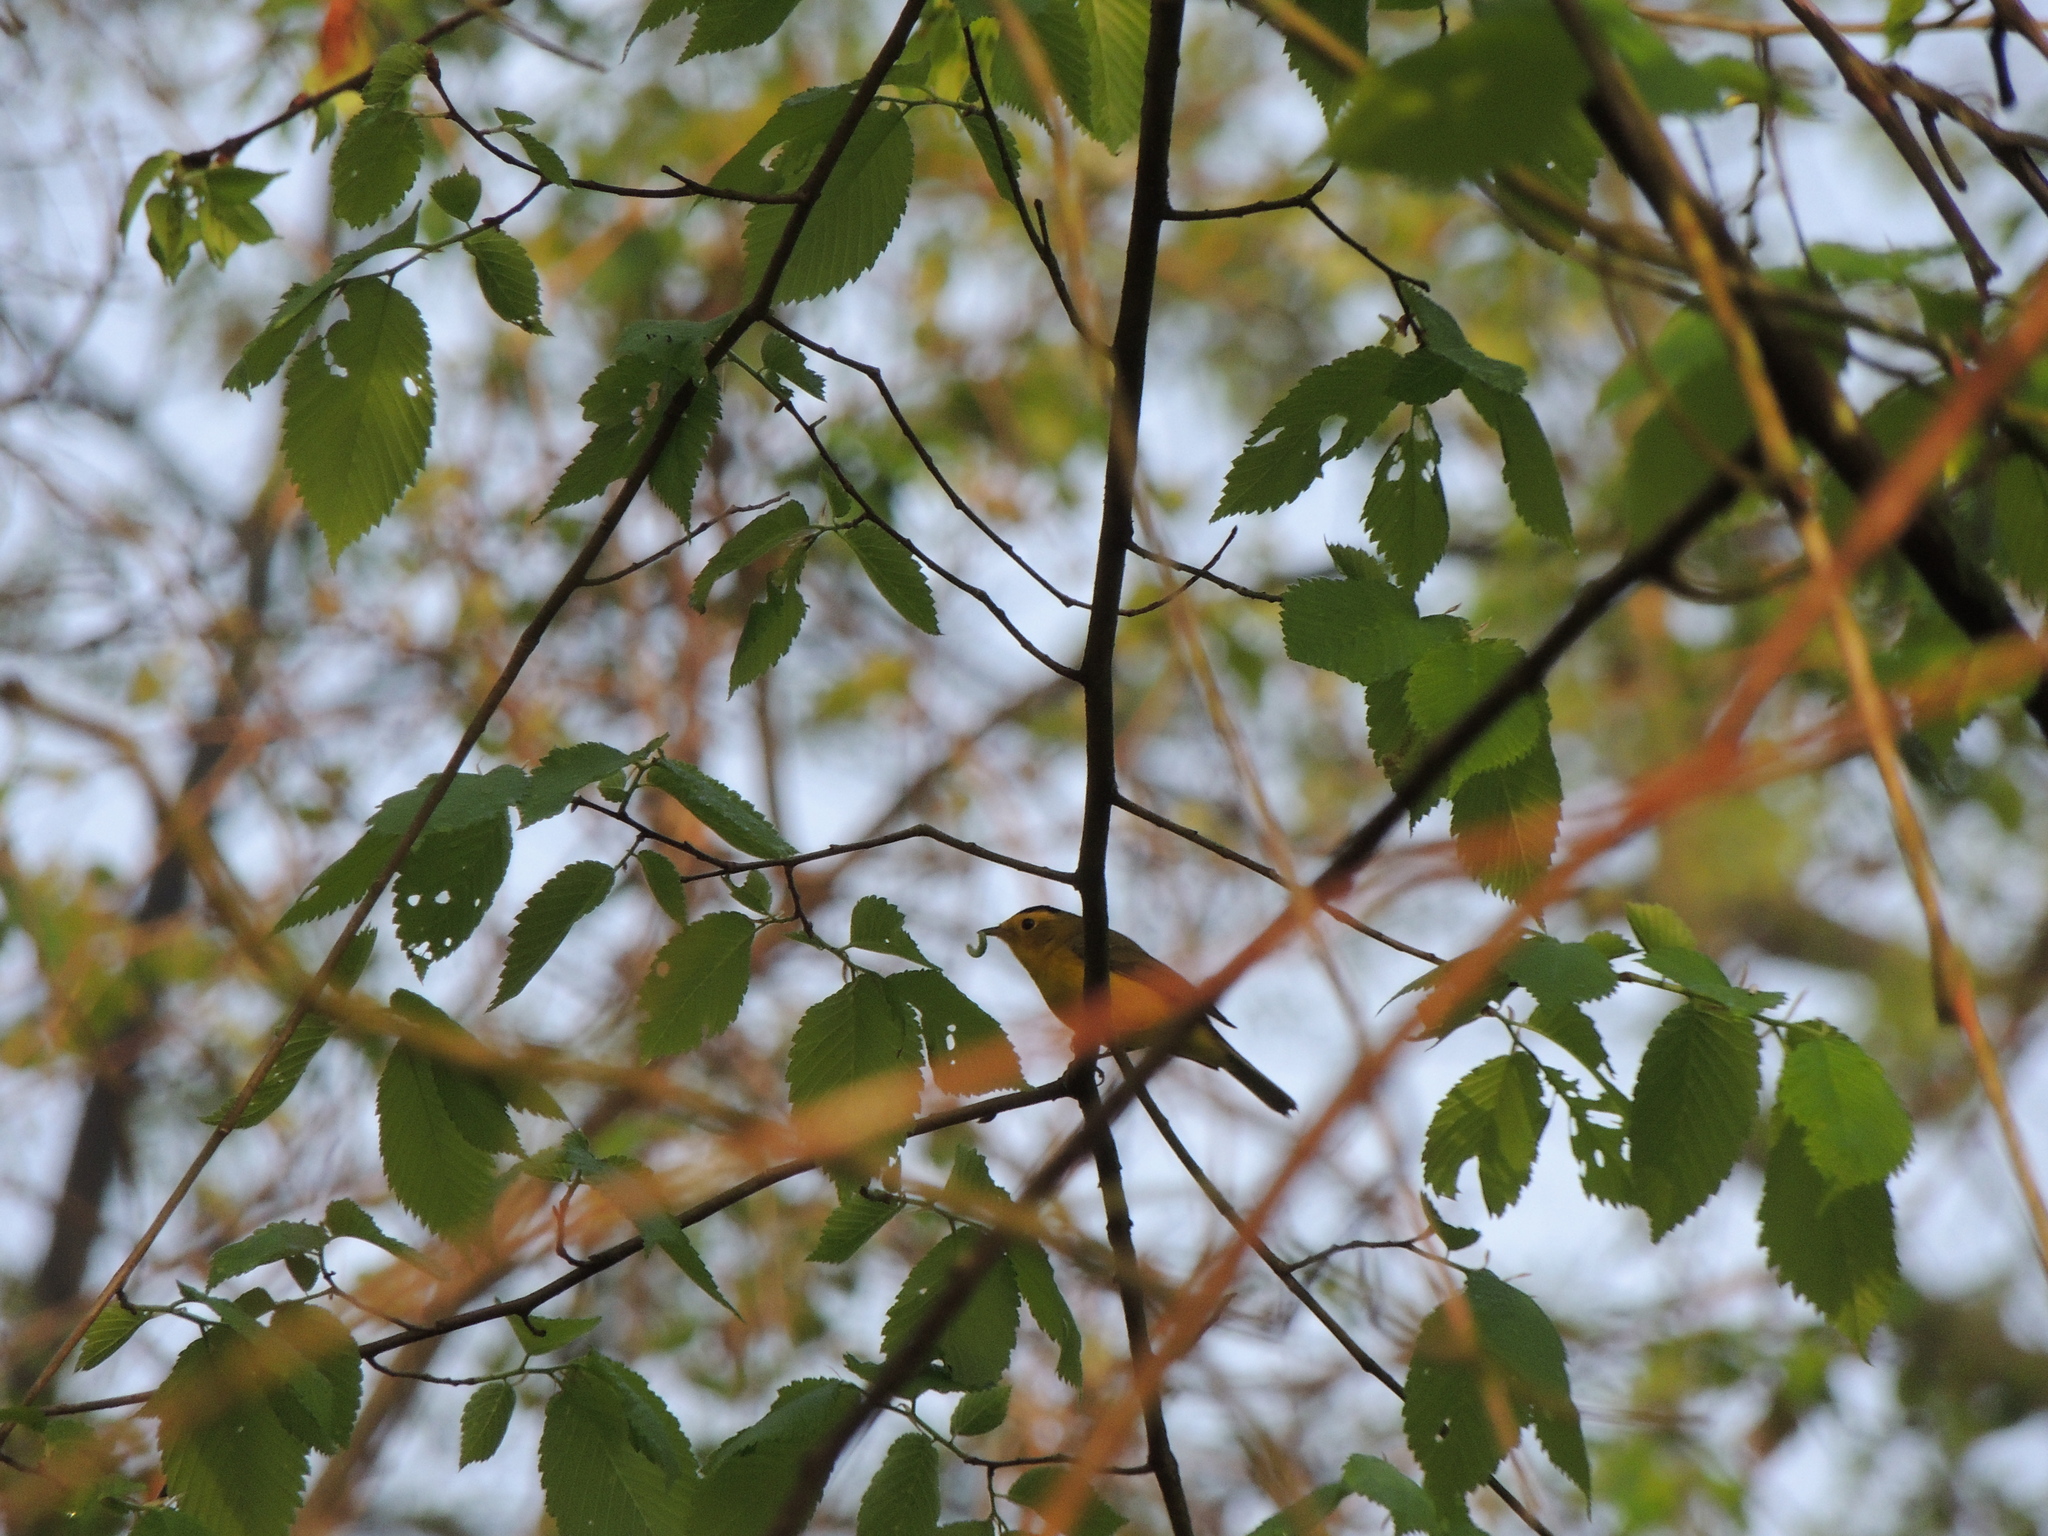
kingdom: Animalia
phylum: Chordata
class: Aves
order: Passeriformes
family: Parulidae
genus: Cardellina
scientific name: Cardellina pusilla
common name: Wilson's warbler
